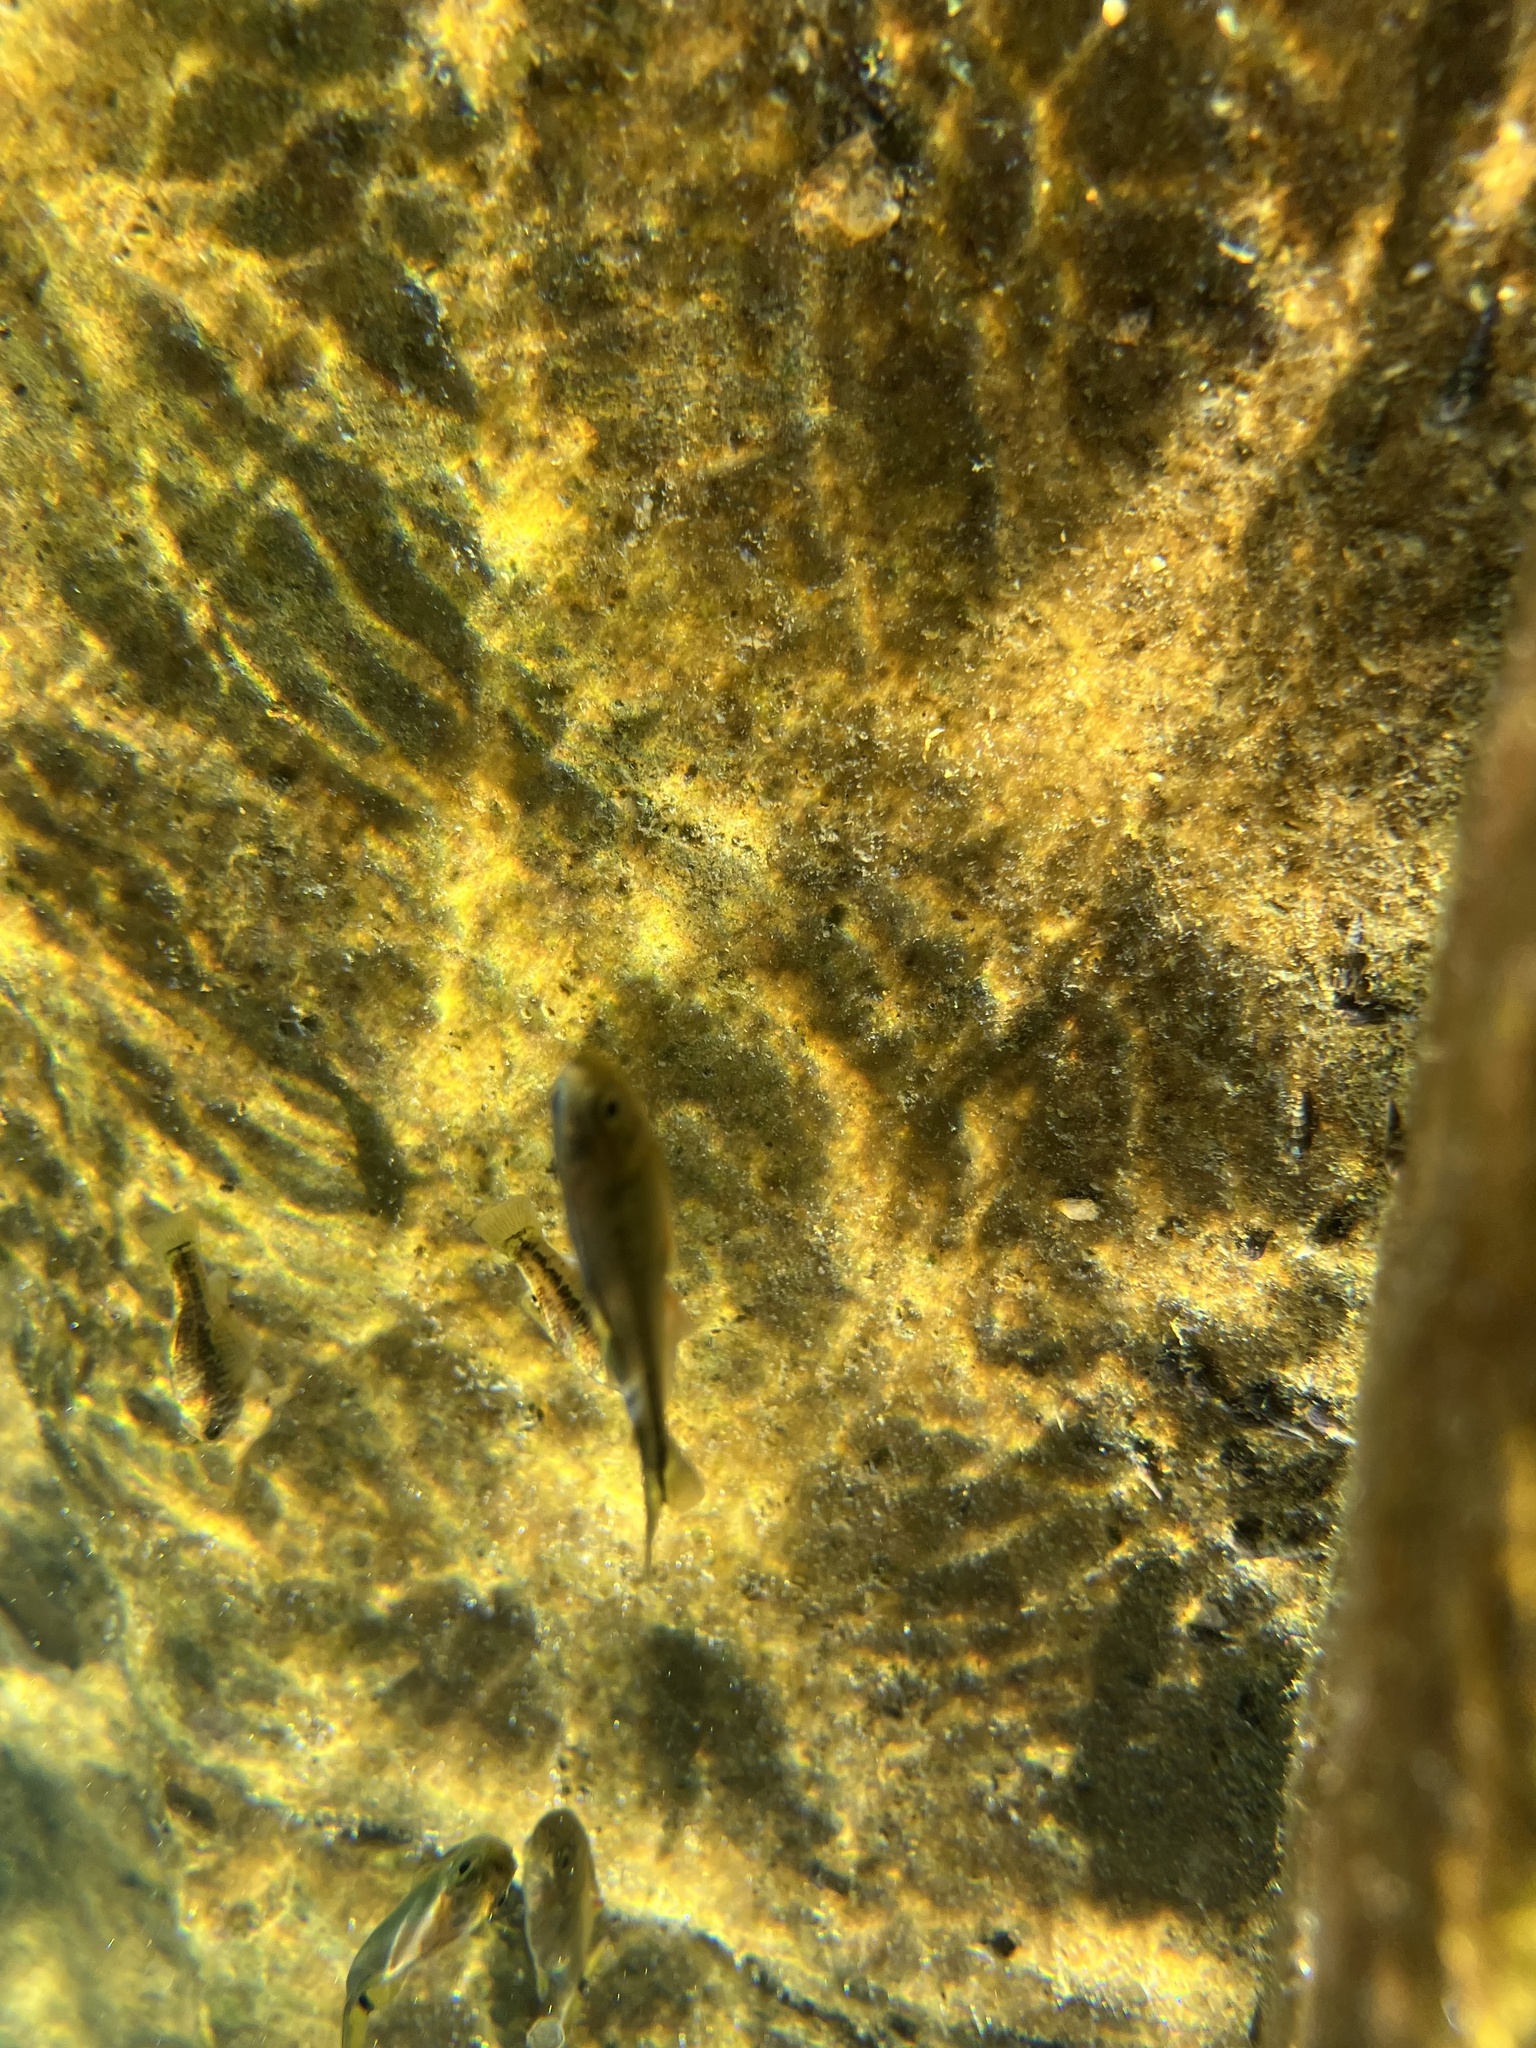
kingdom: Animalia
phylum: Chordata
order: Characiformes
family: Characidae
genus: Astyanax
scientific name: Astyanax mexicanus
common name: Mexican tetra
